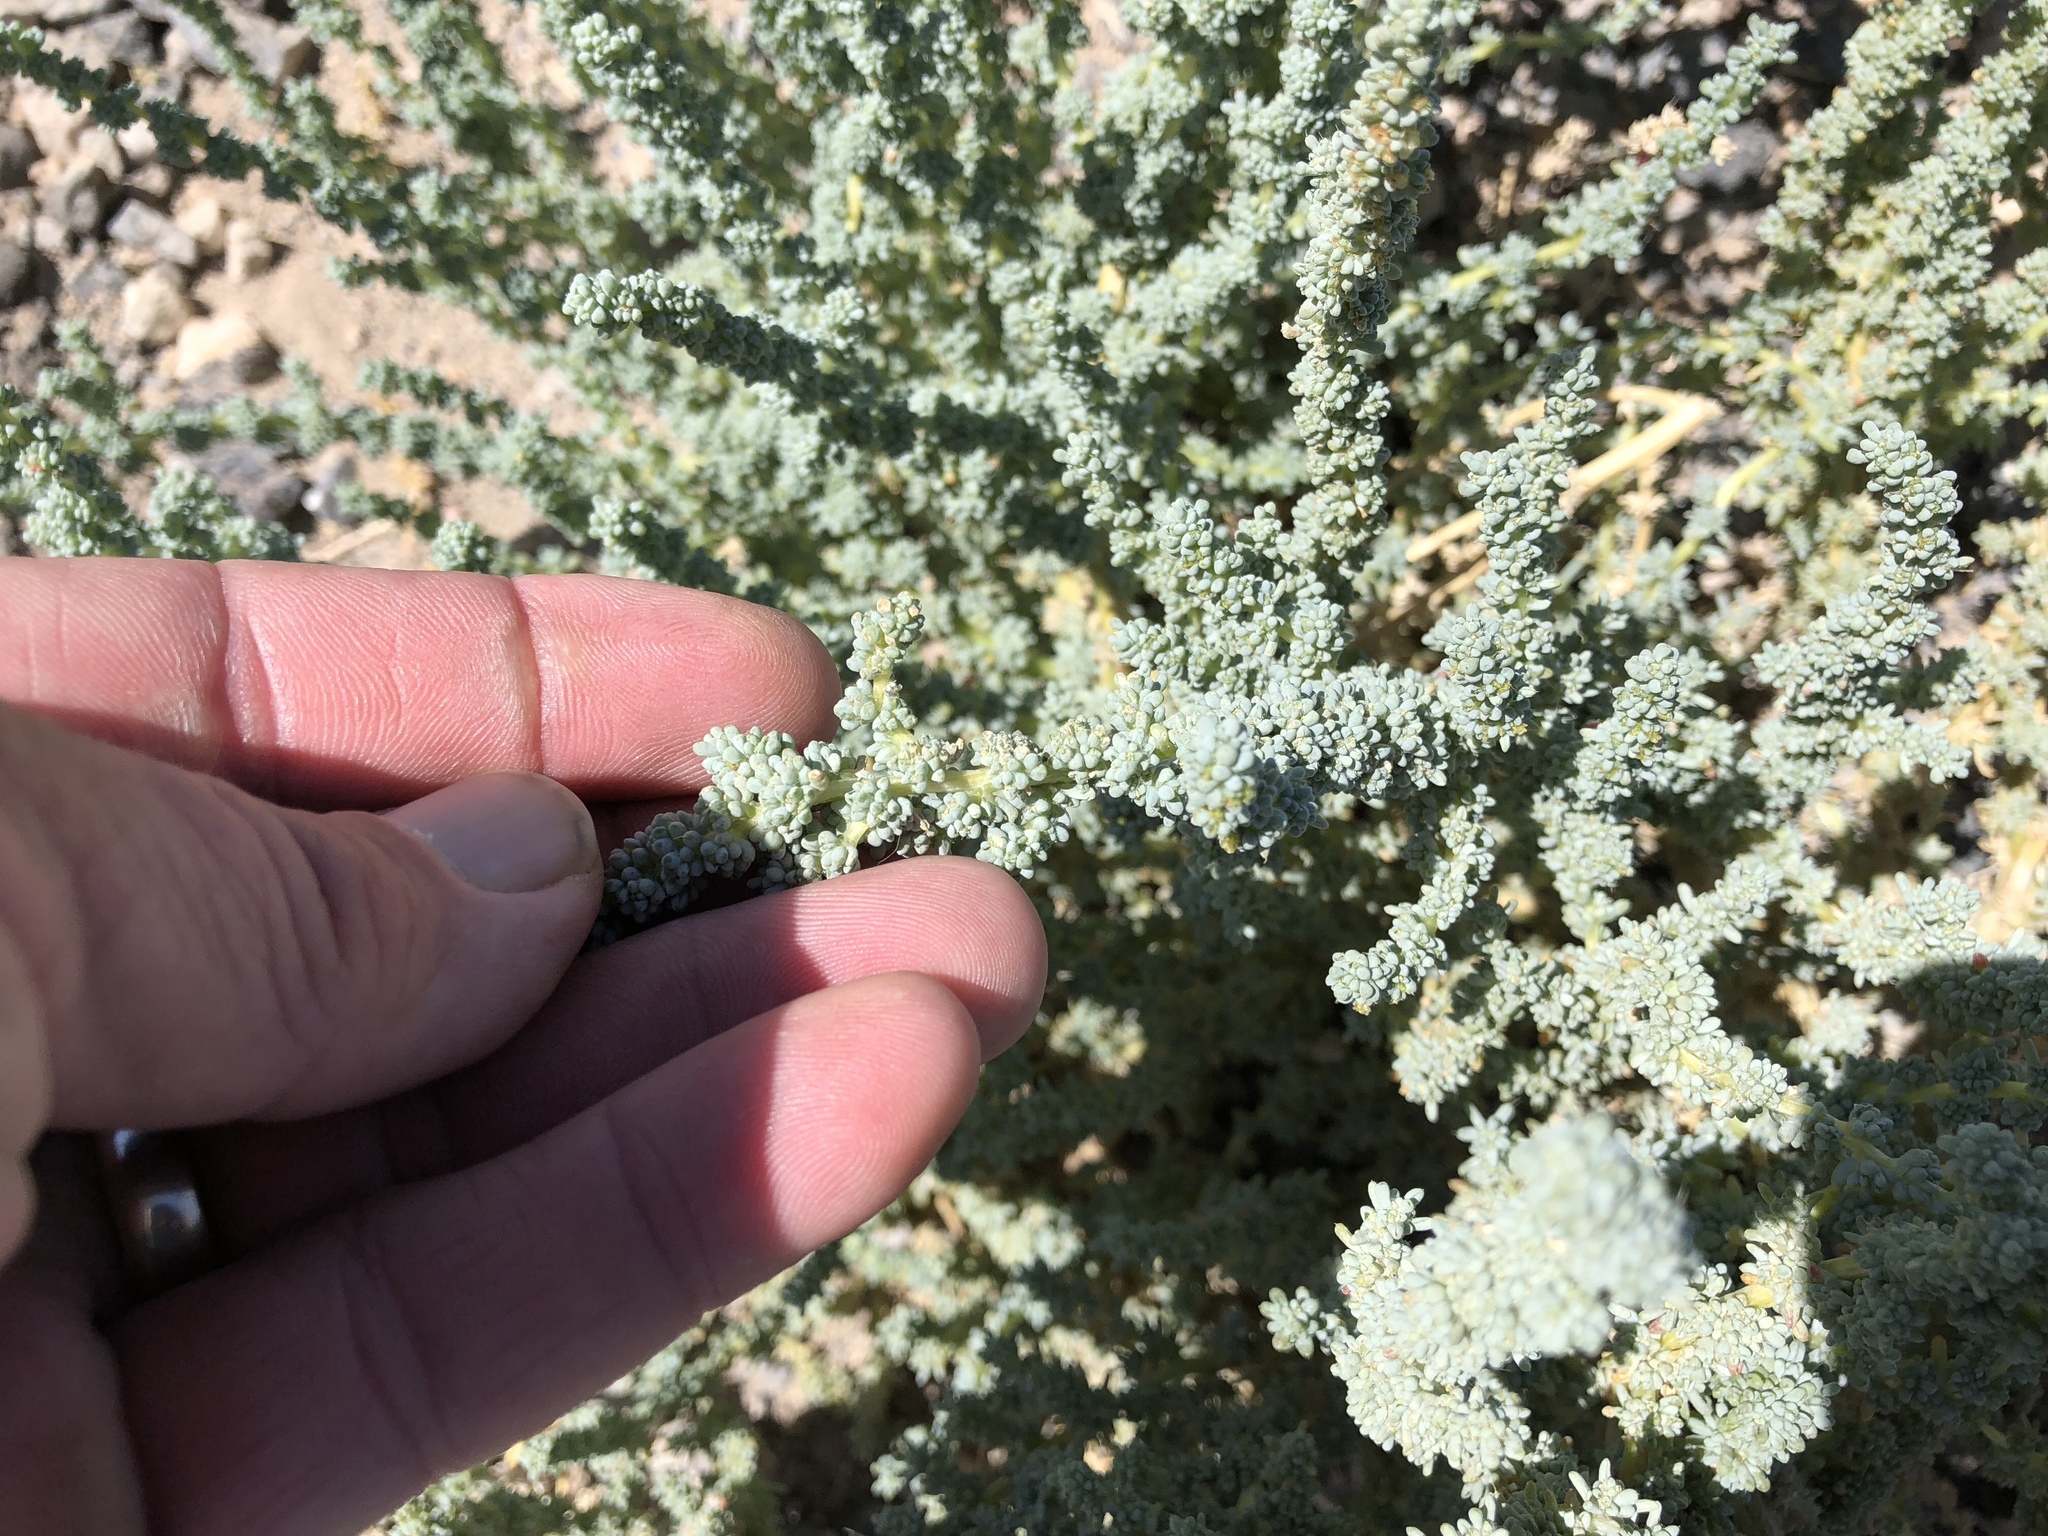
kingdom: Plantae
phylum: Tracheophyta
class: Magnoliopsida
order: Caryophyllales
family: Amaranthaceae
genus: Halogeton
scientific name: Halogeton glomeratus
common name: Saltlover
